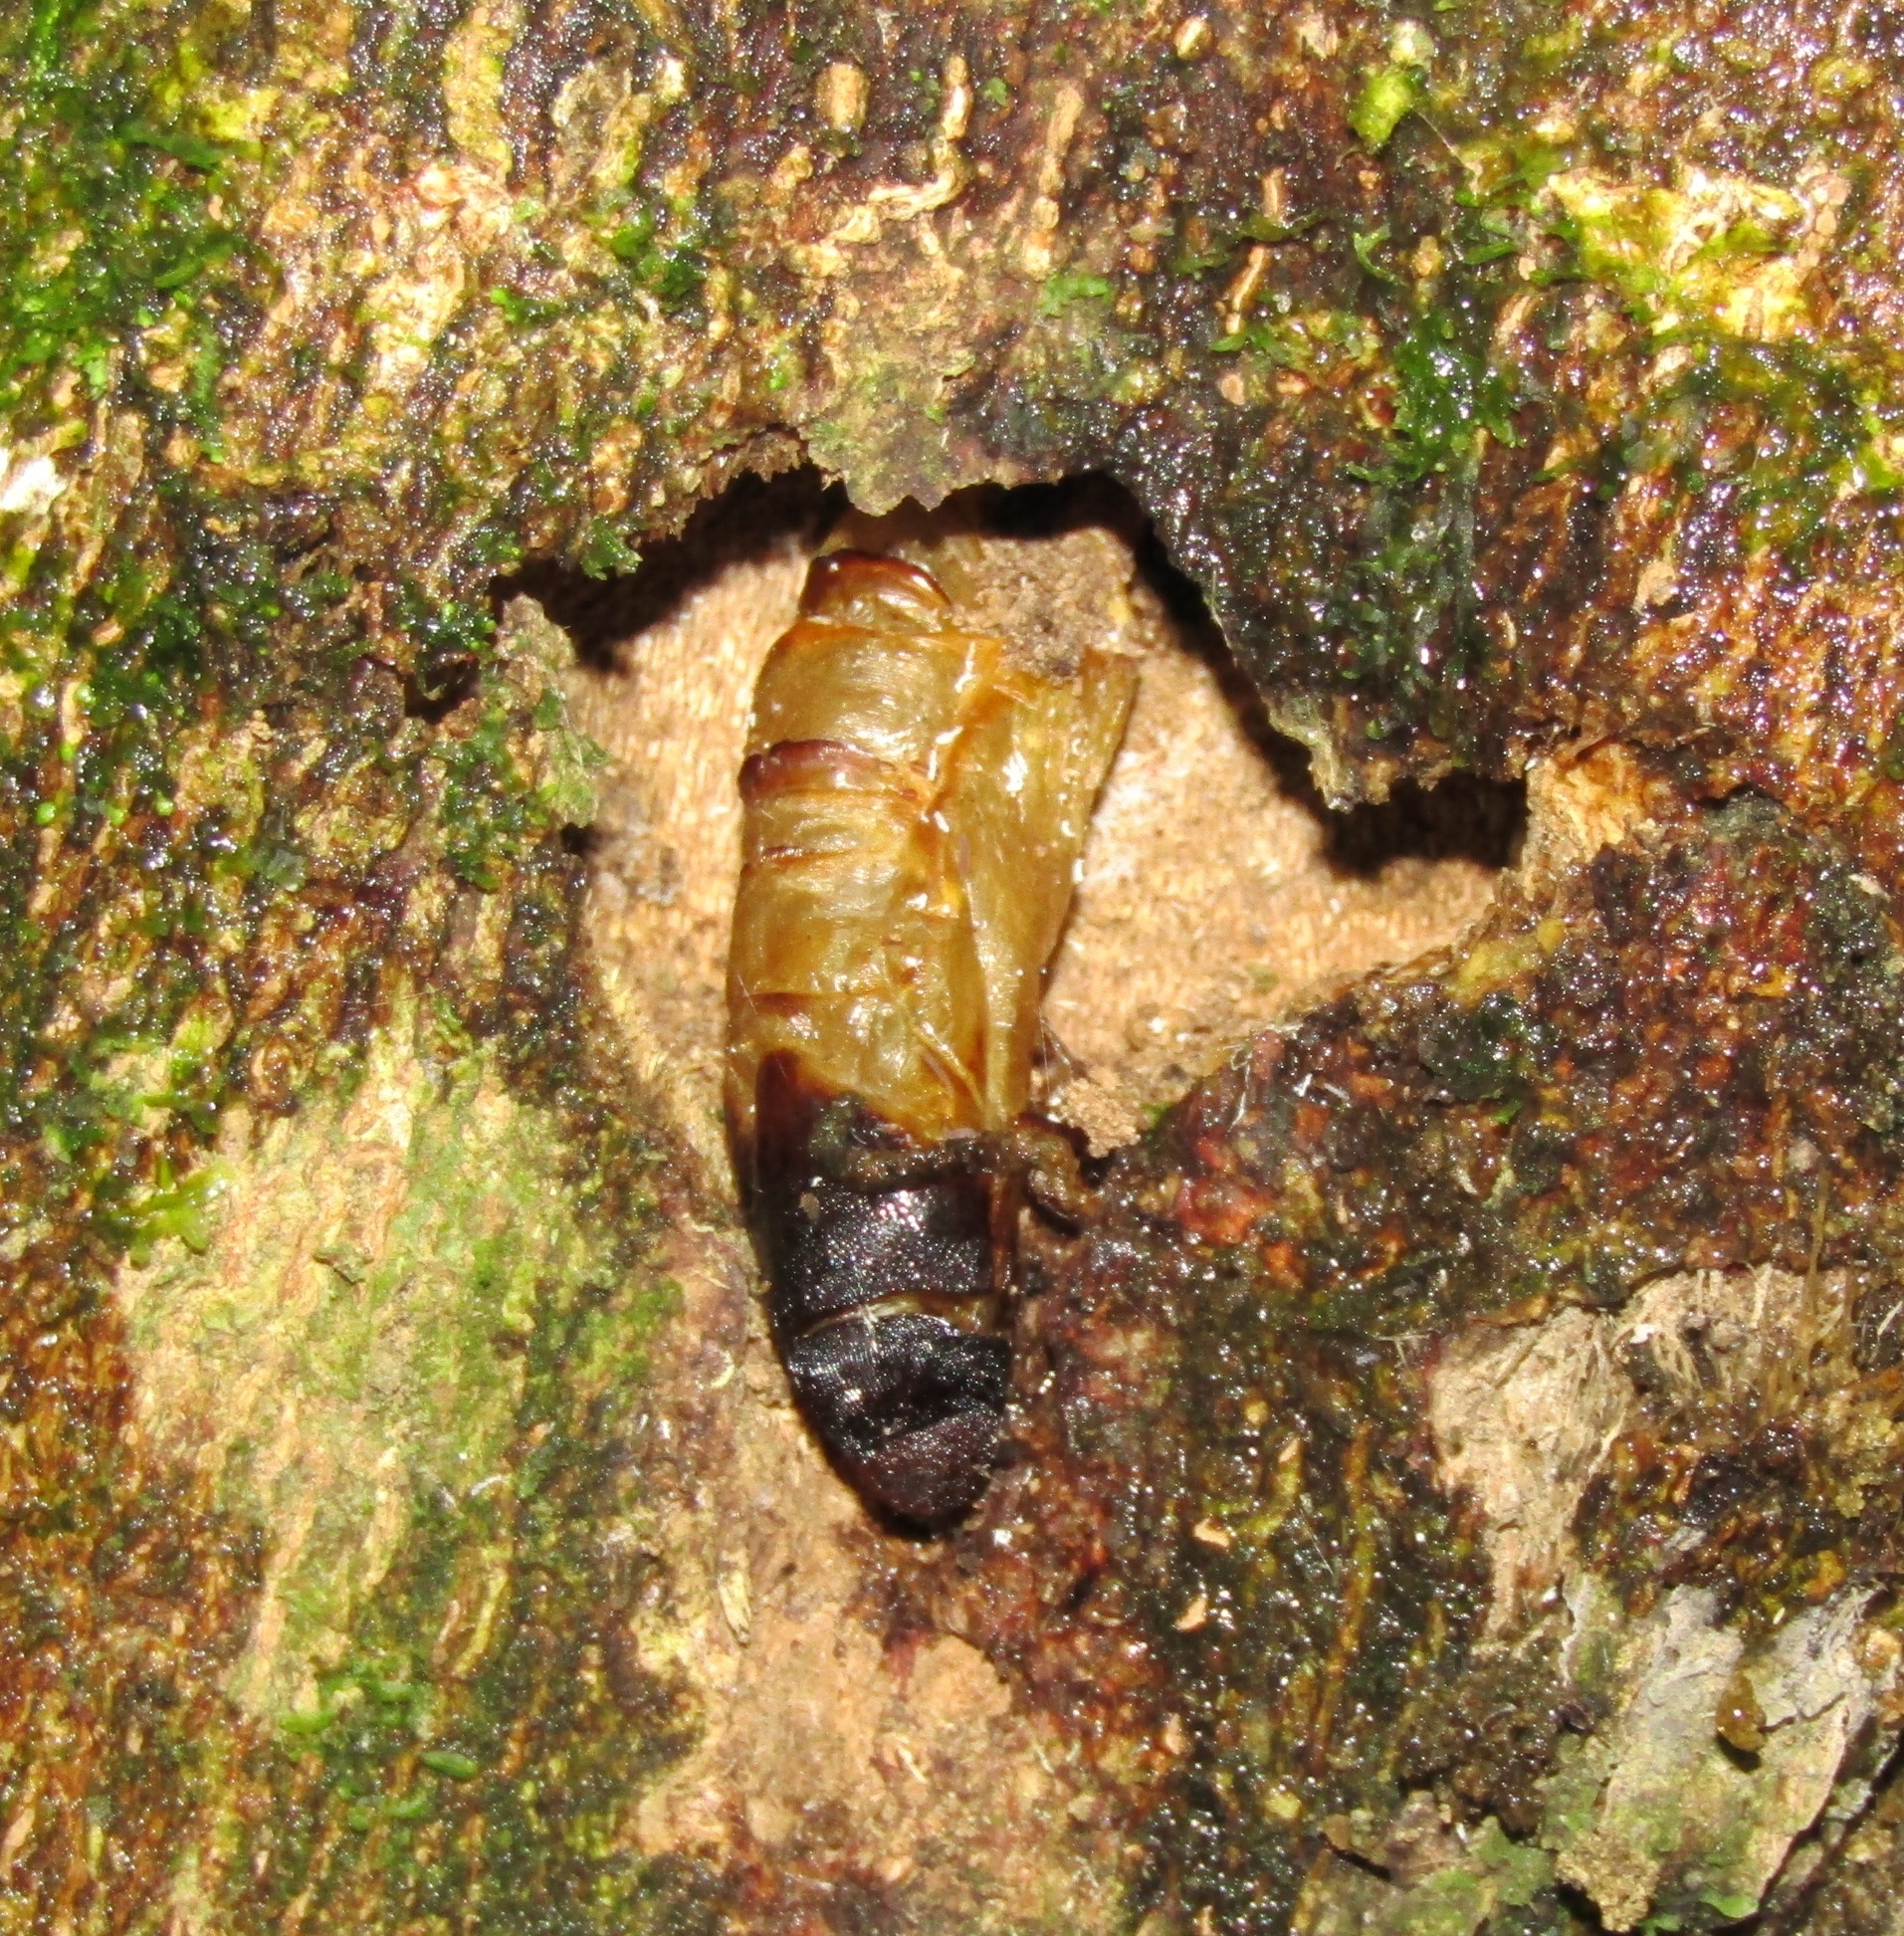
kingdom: Animalia
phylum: Arthropoda
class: Insecta
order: Lepidoptera
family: Hepialidae
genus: Aenetus
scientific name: Aenetus virescens
